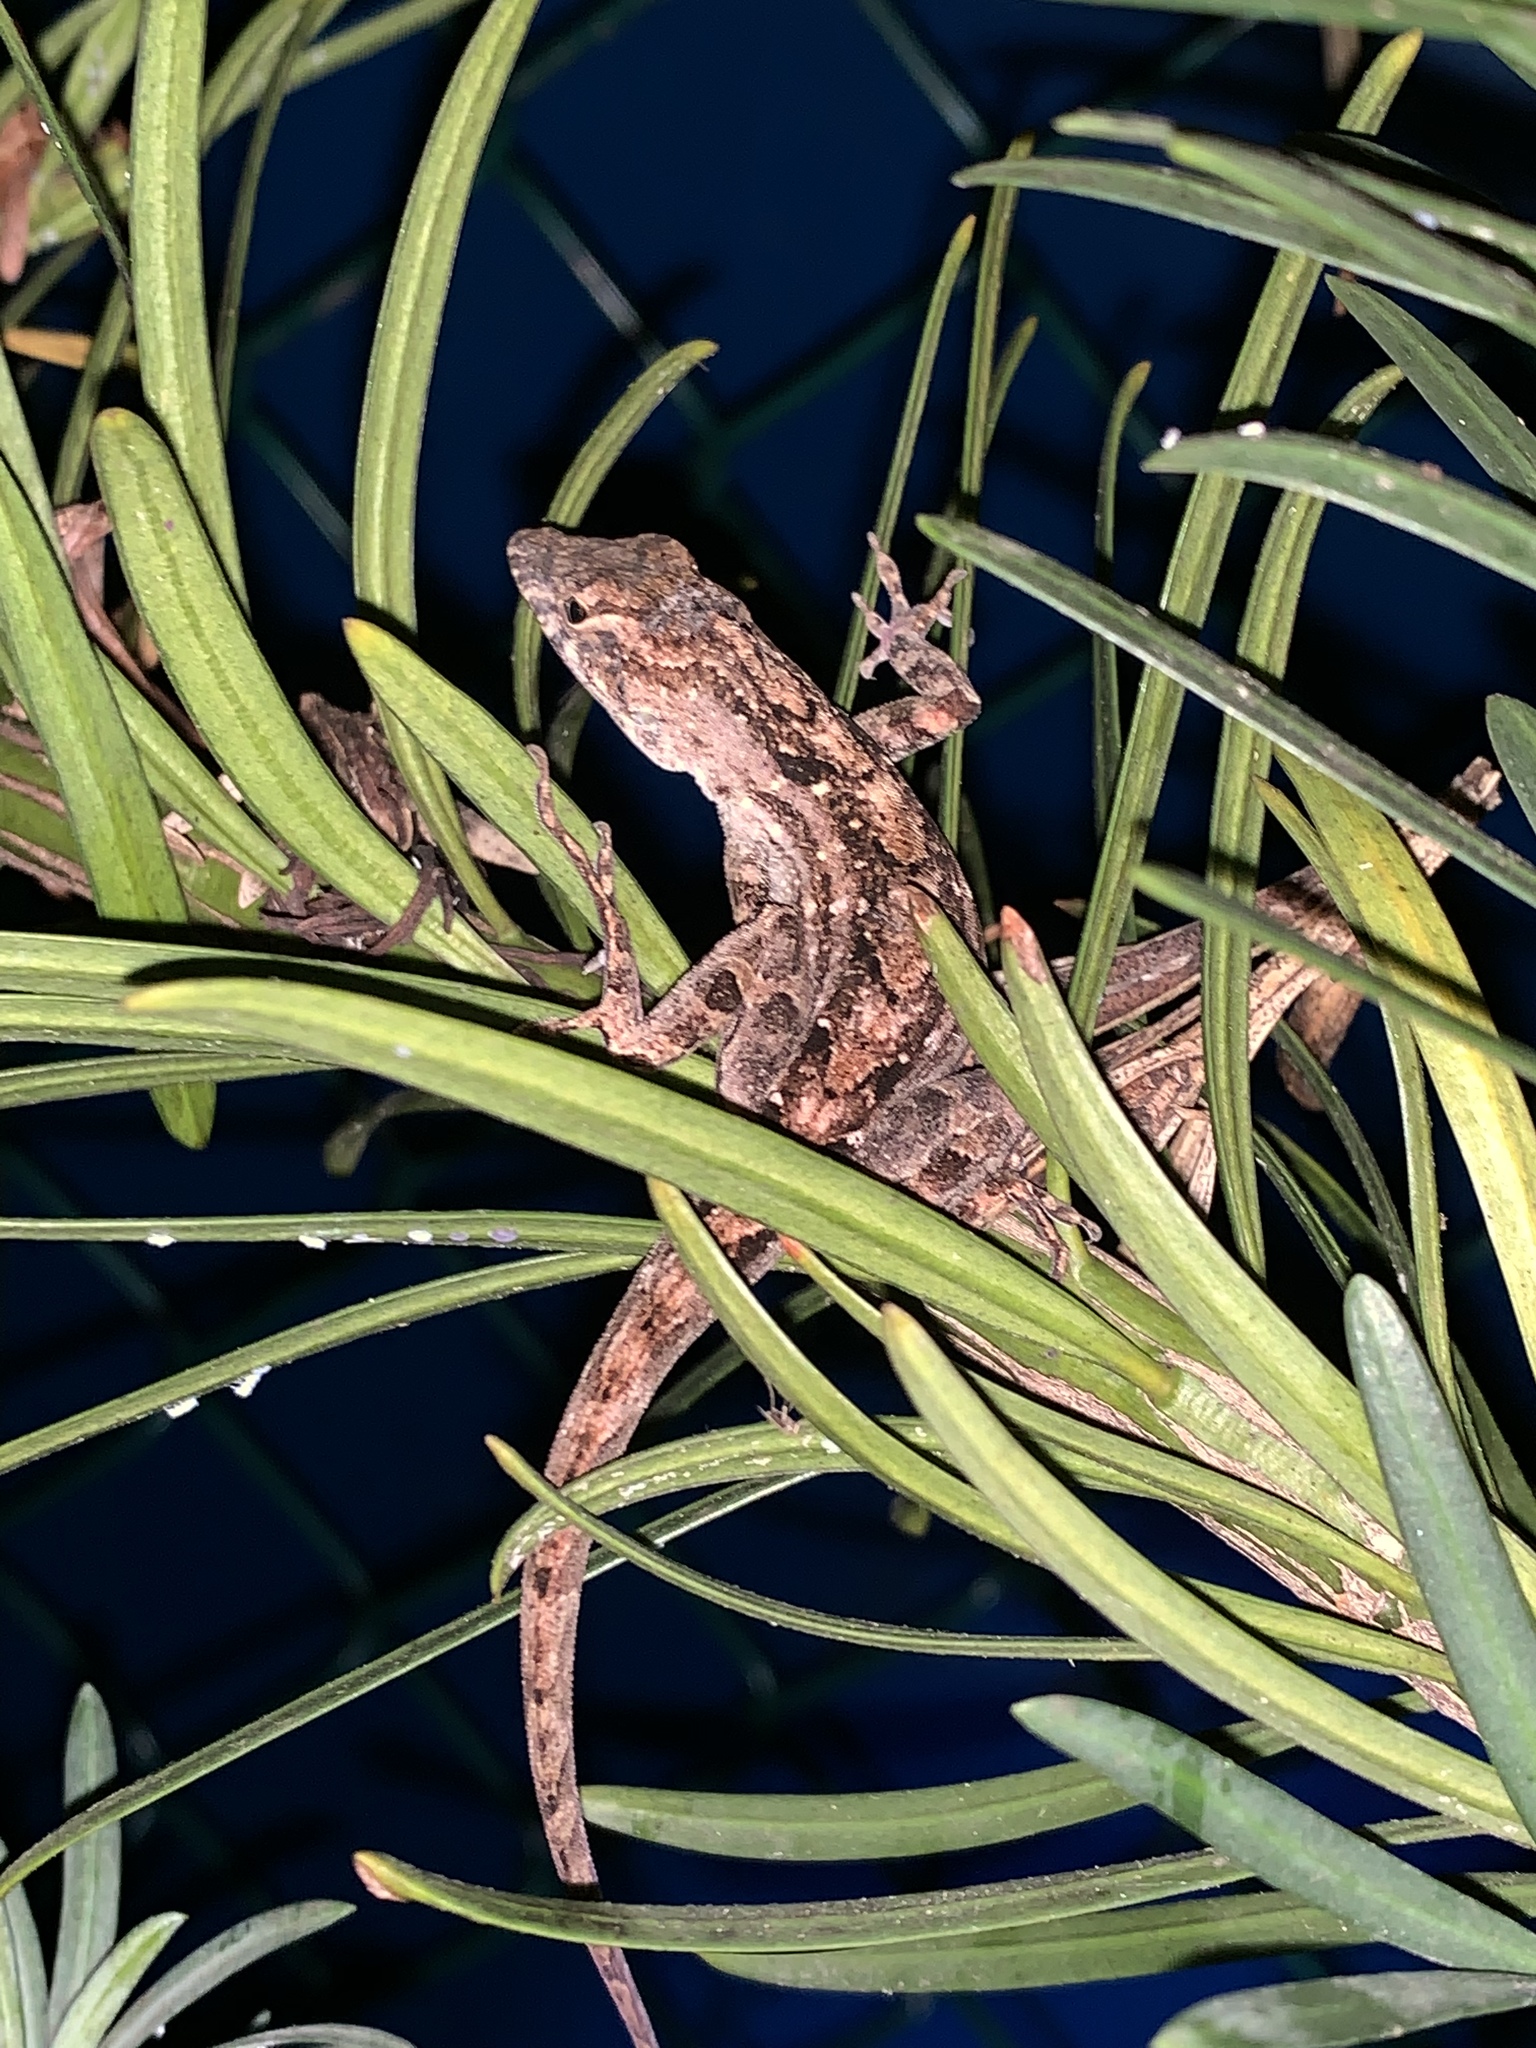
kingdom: Animalia
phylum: Chordata
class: Squamata
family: Dactyloidae
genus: Anolis
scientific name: Anolis sagrei
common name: Brown anole
